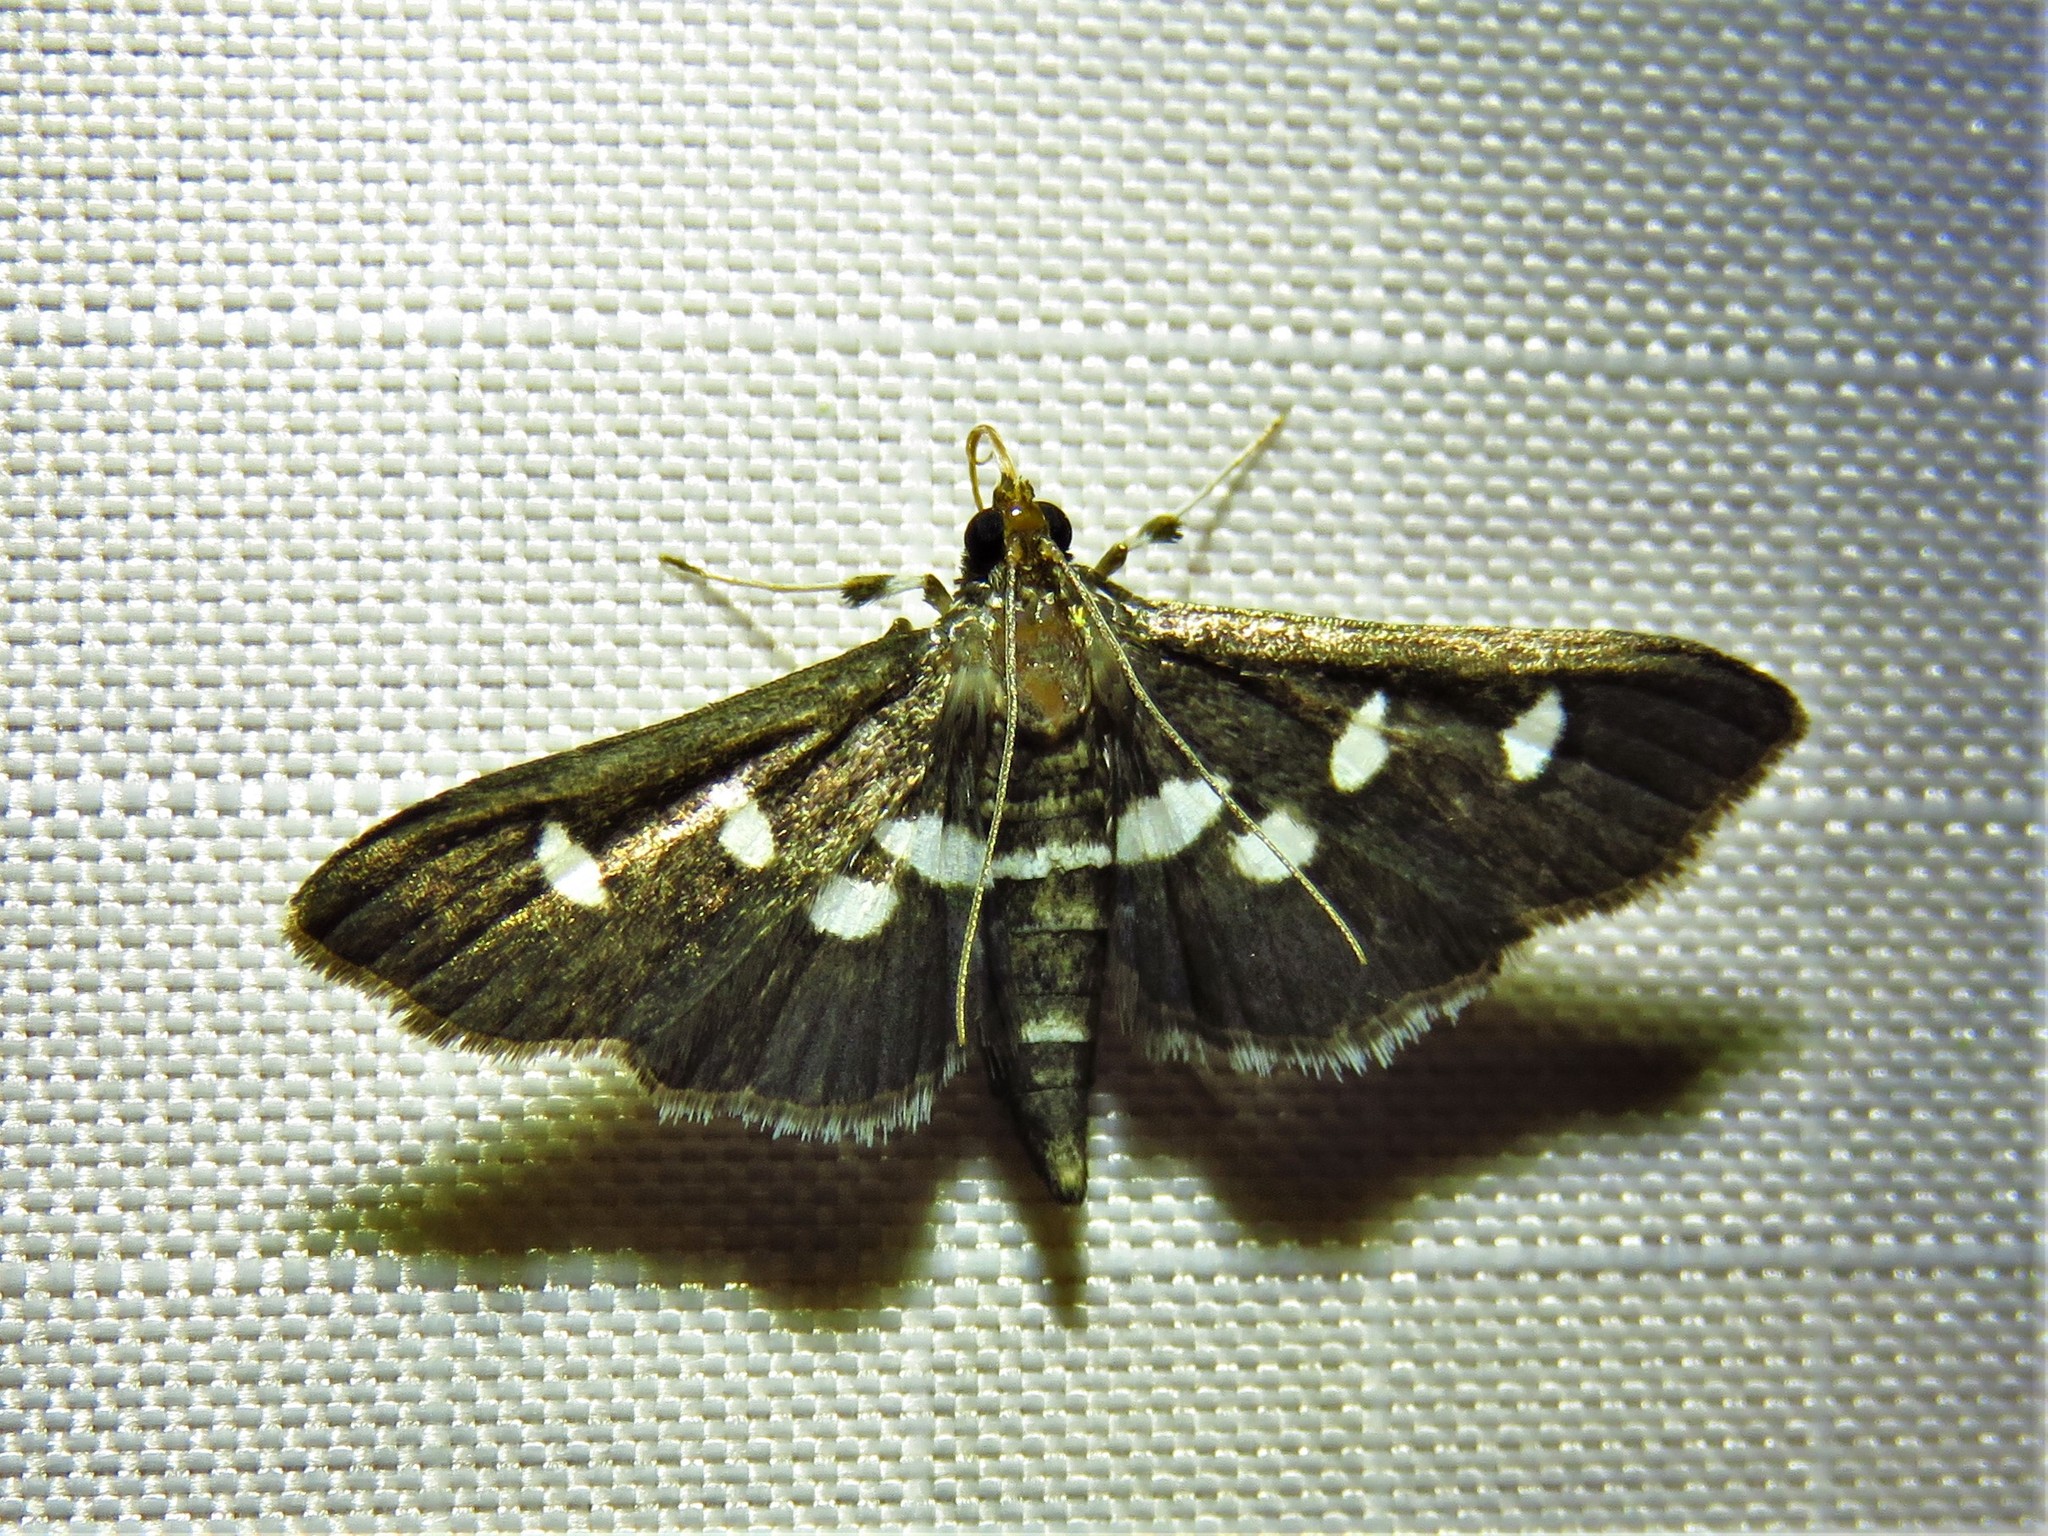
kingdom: Animalia
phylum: Arthropoda
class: Insecta
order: Lepidoptera
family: Crambidae
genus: Desmia
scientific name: Desmia
